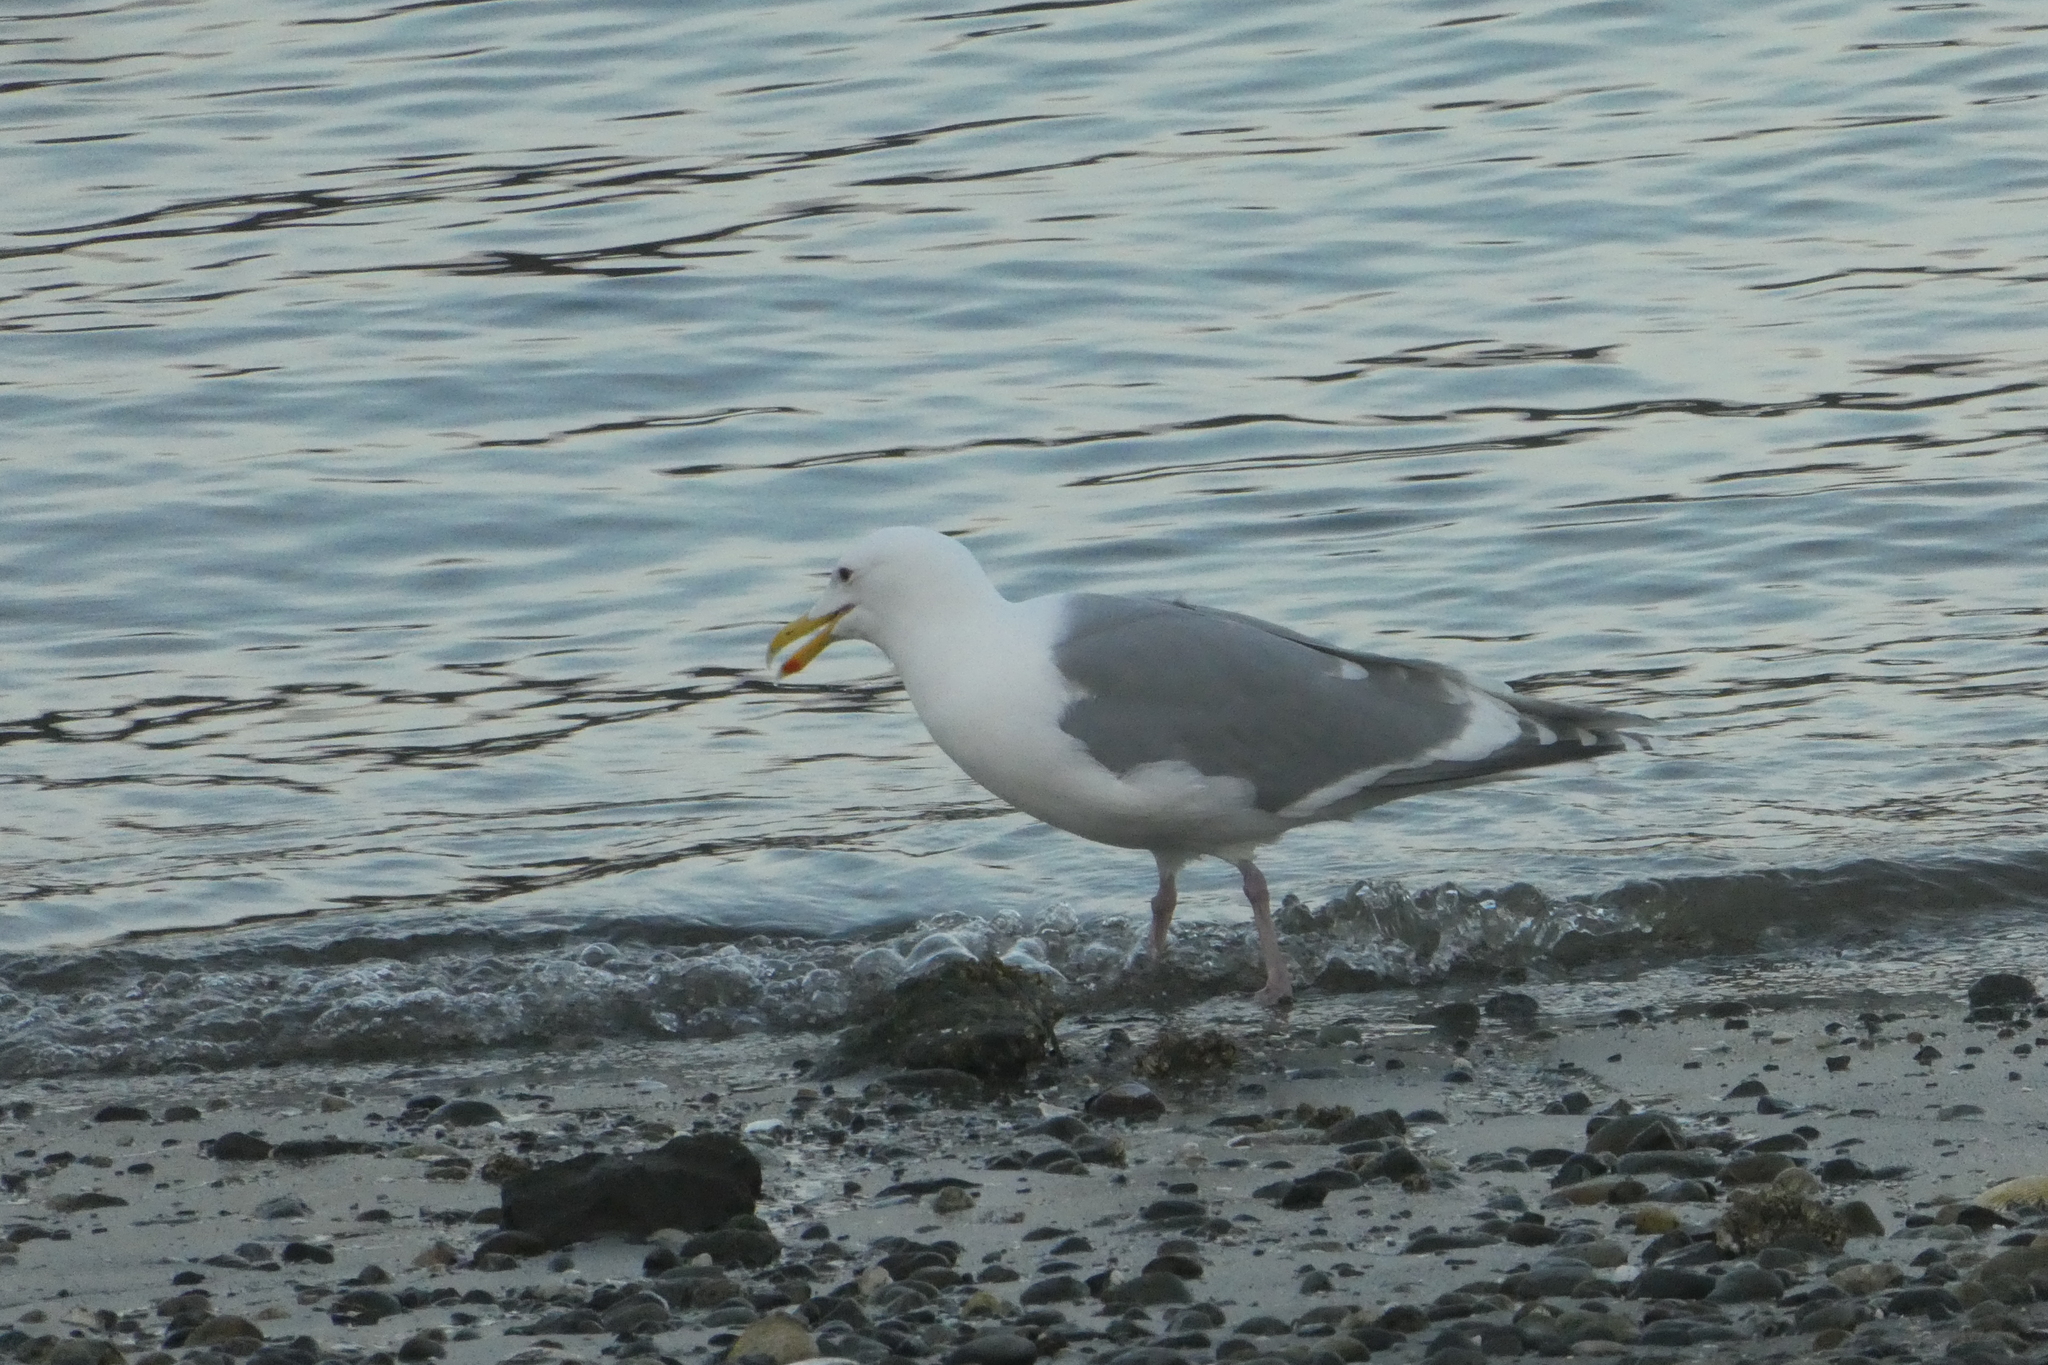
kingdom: Animalia
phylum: Chordata
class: Aves
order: Charadriiformes
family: Laridae
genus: Larus
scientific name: Larus glaucescens
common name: Glaucous-winged gull
